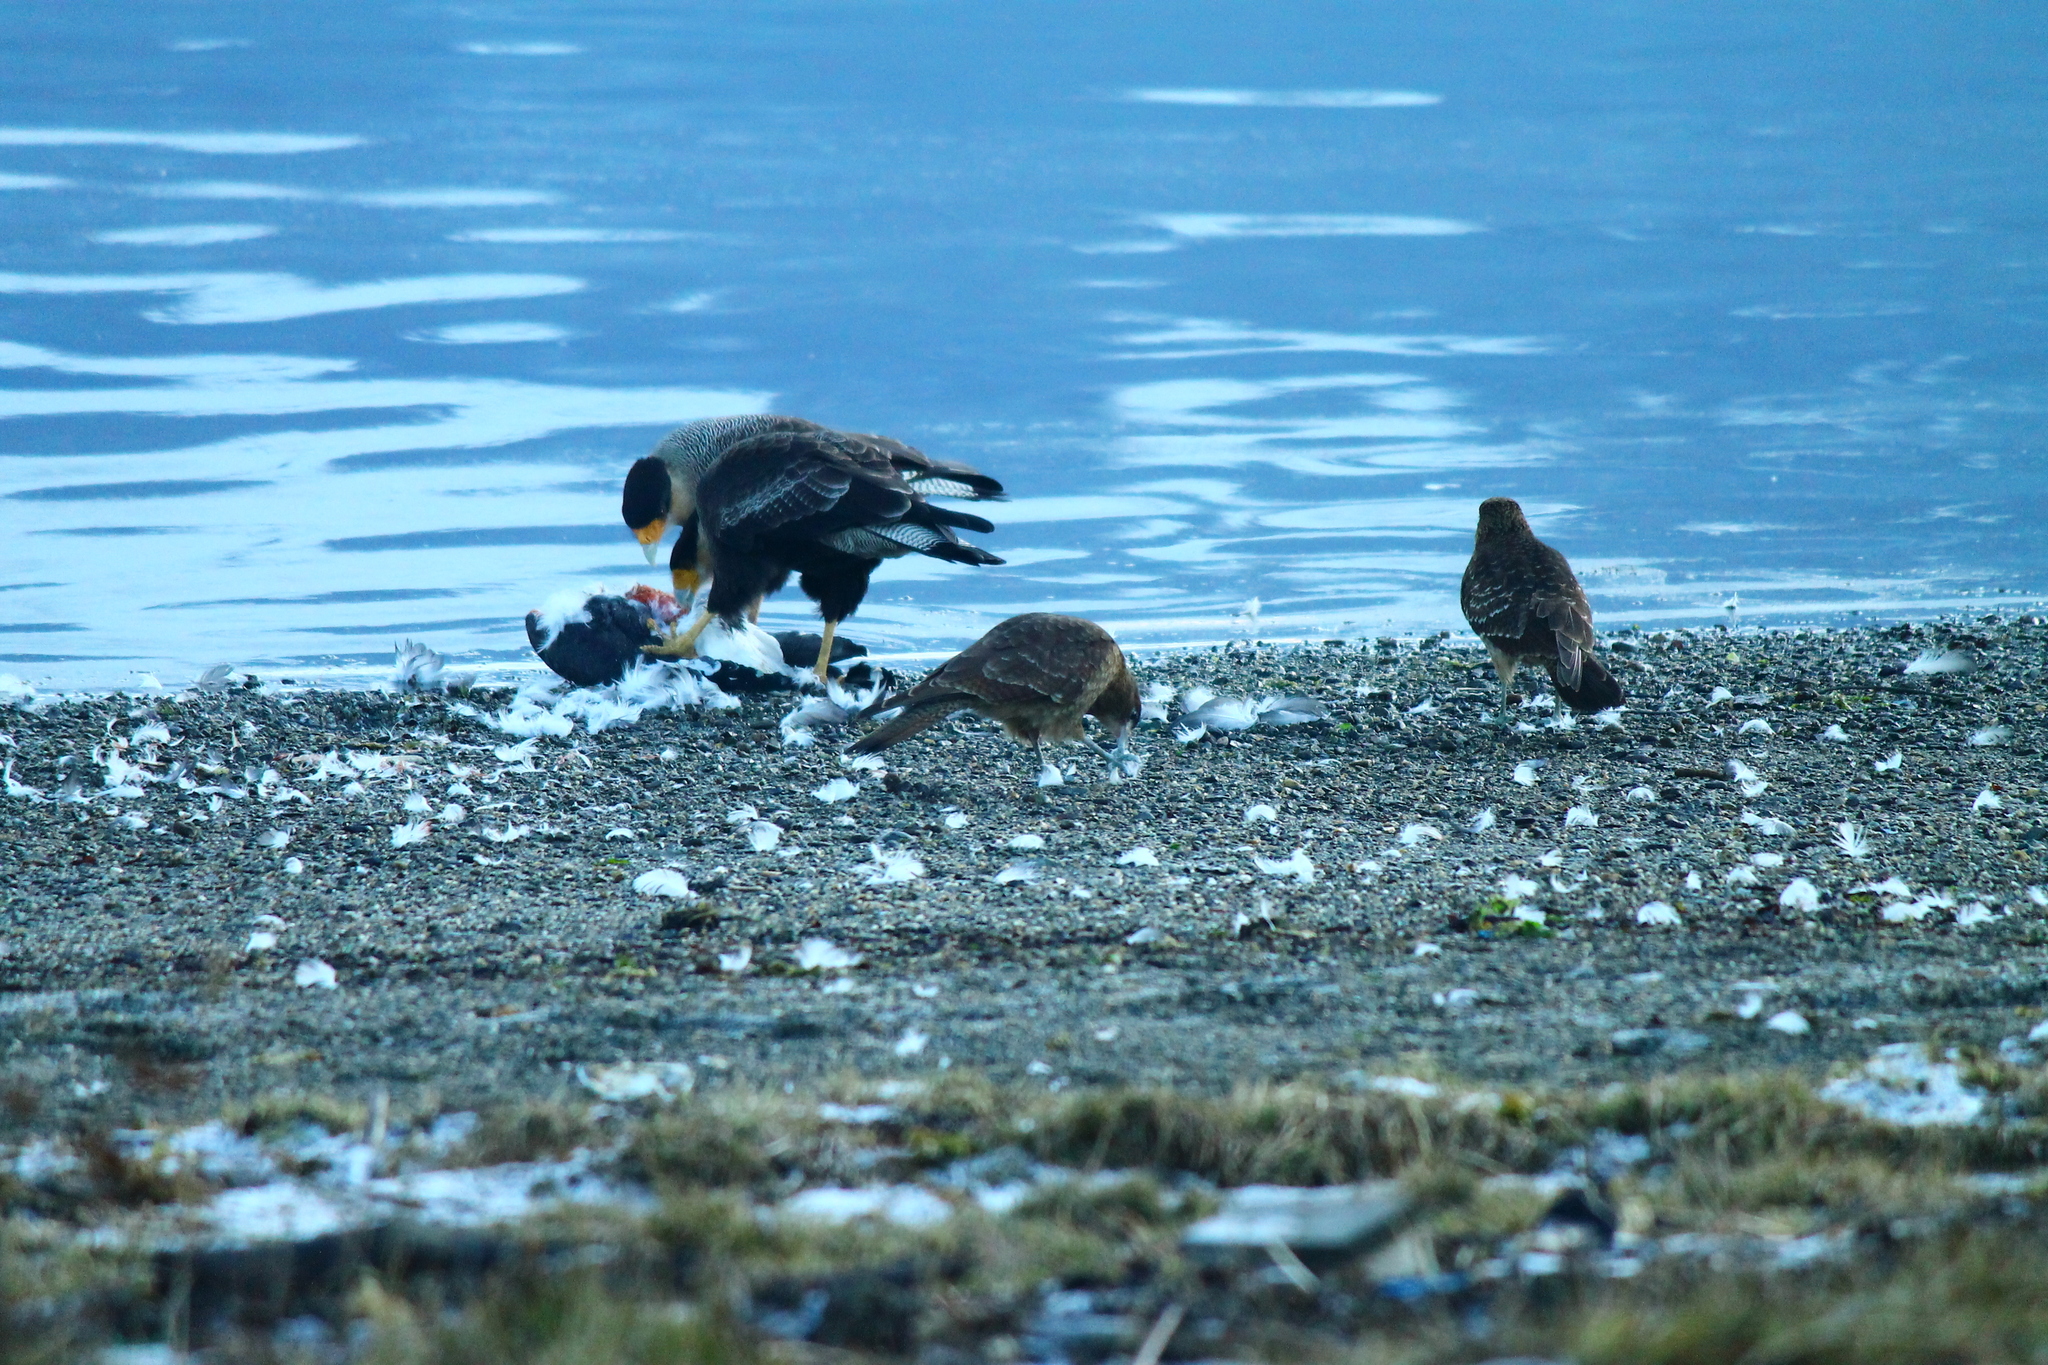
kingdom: Animalia
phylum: Chordata
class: Aves
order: Falconiformes
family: Falconidae
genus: Caracara
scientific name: Caracara plancus
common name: Southern caracara
